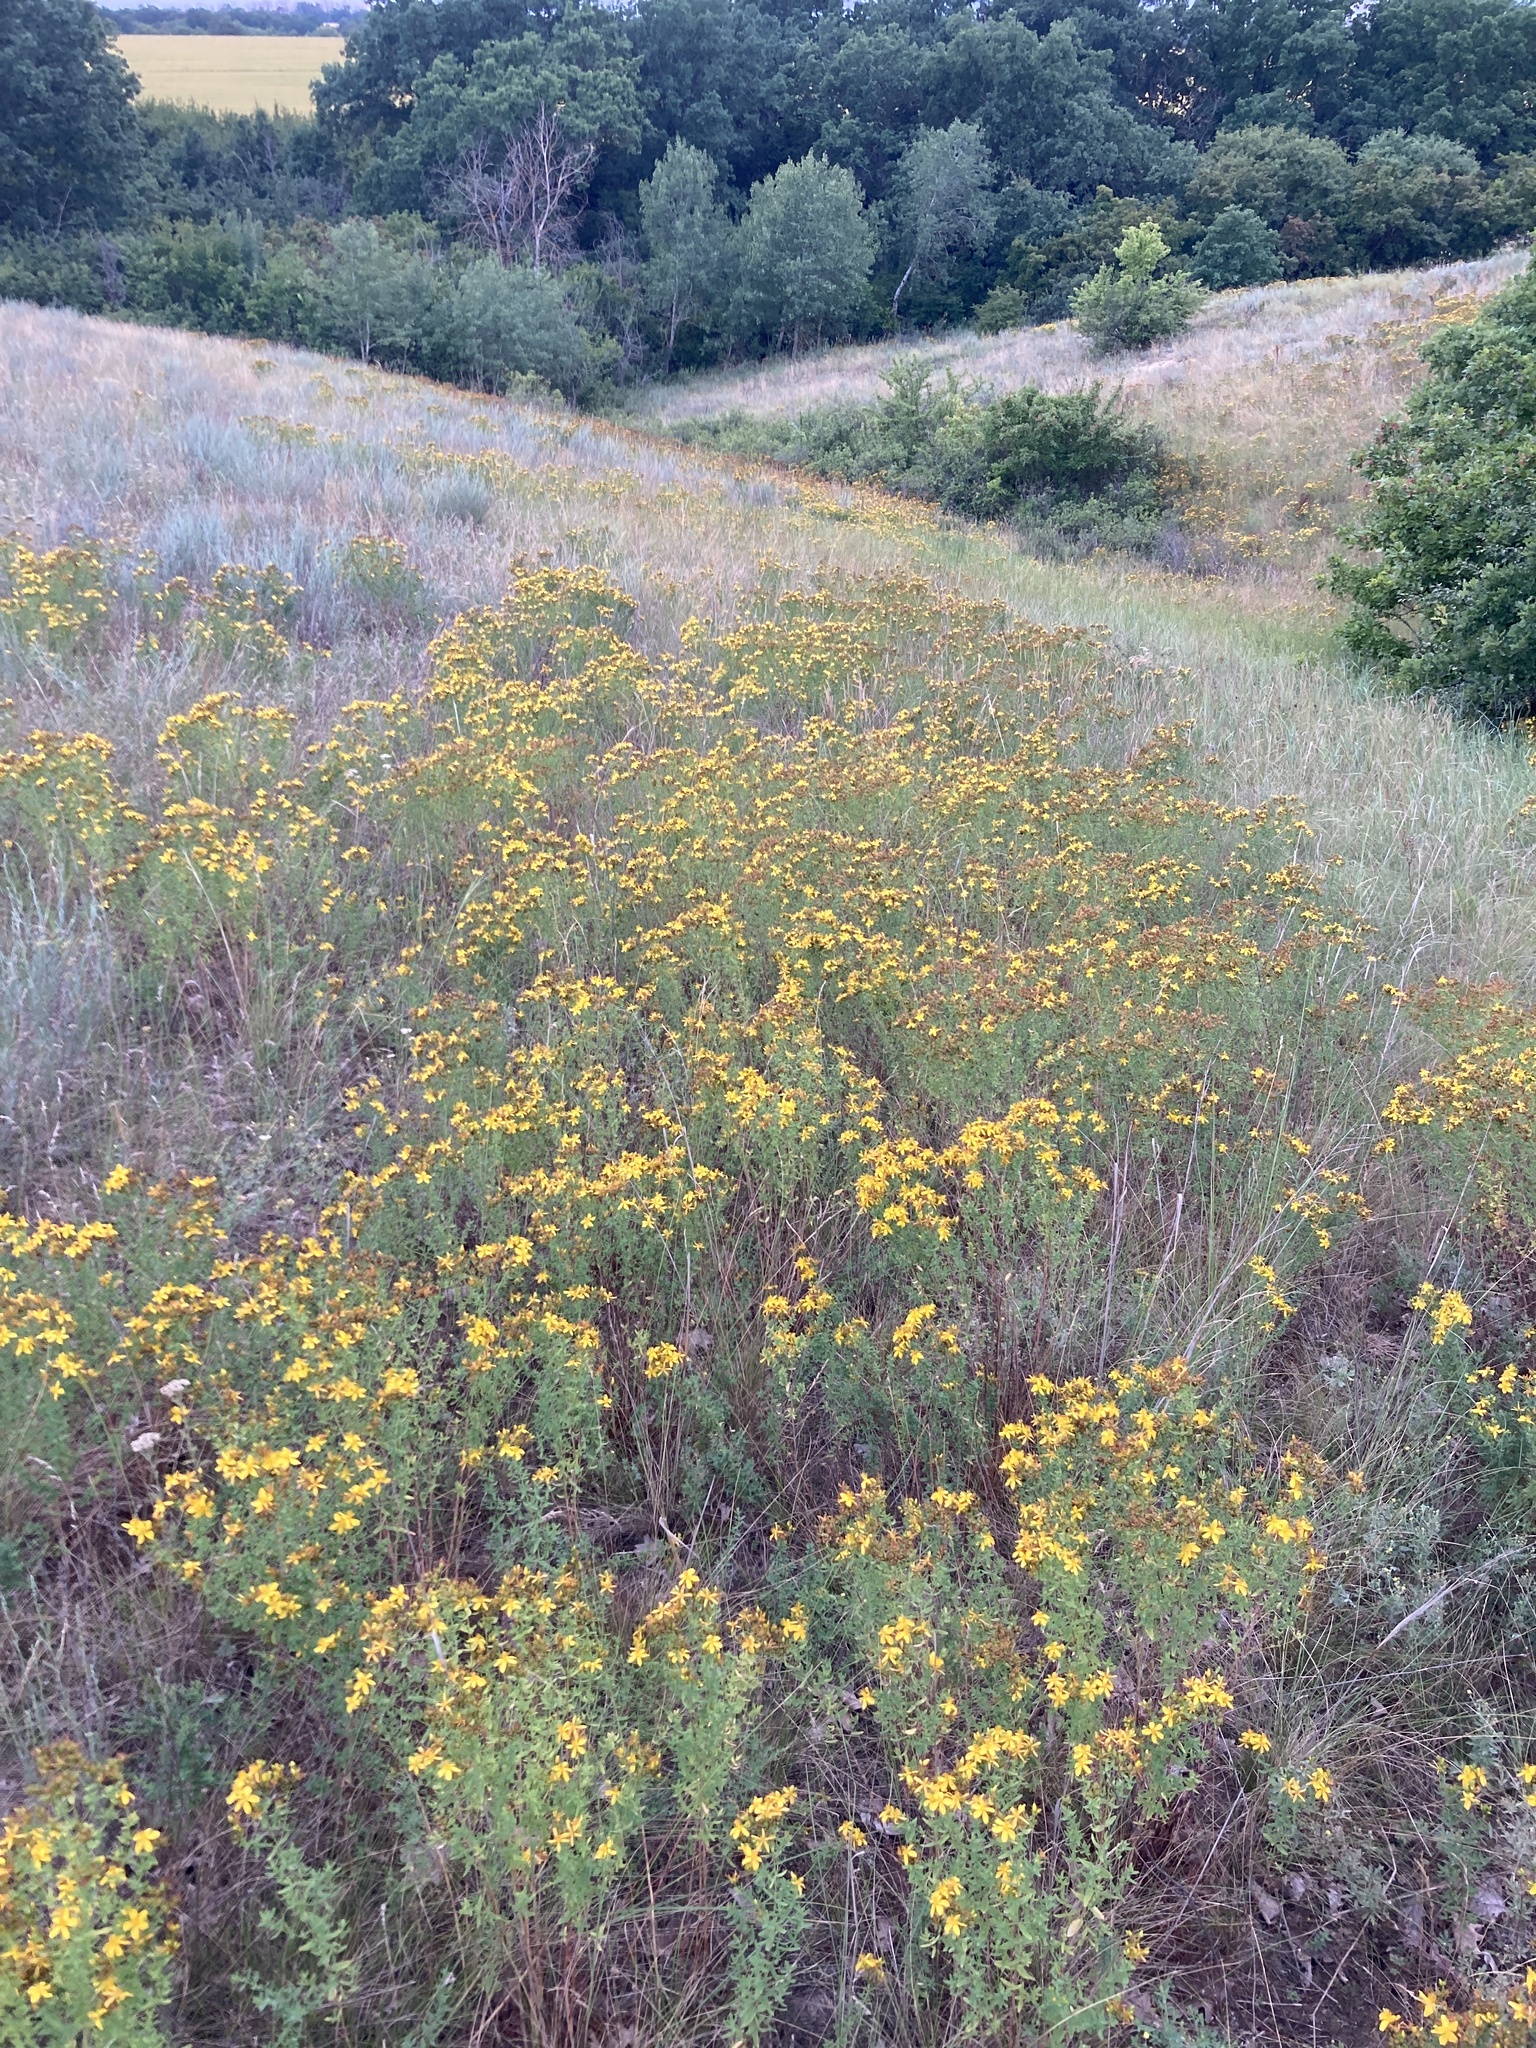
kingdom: Plantae
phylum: Tracheophyta
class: Magnoliopsida
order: Malpighiales
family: Hypericaceae
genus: Hypericum
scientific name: Hypericum perforatum
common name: Common st. johnswort
